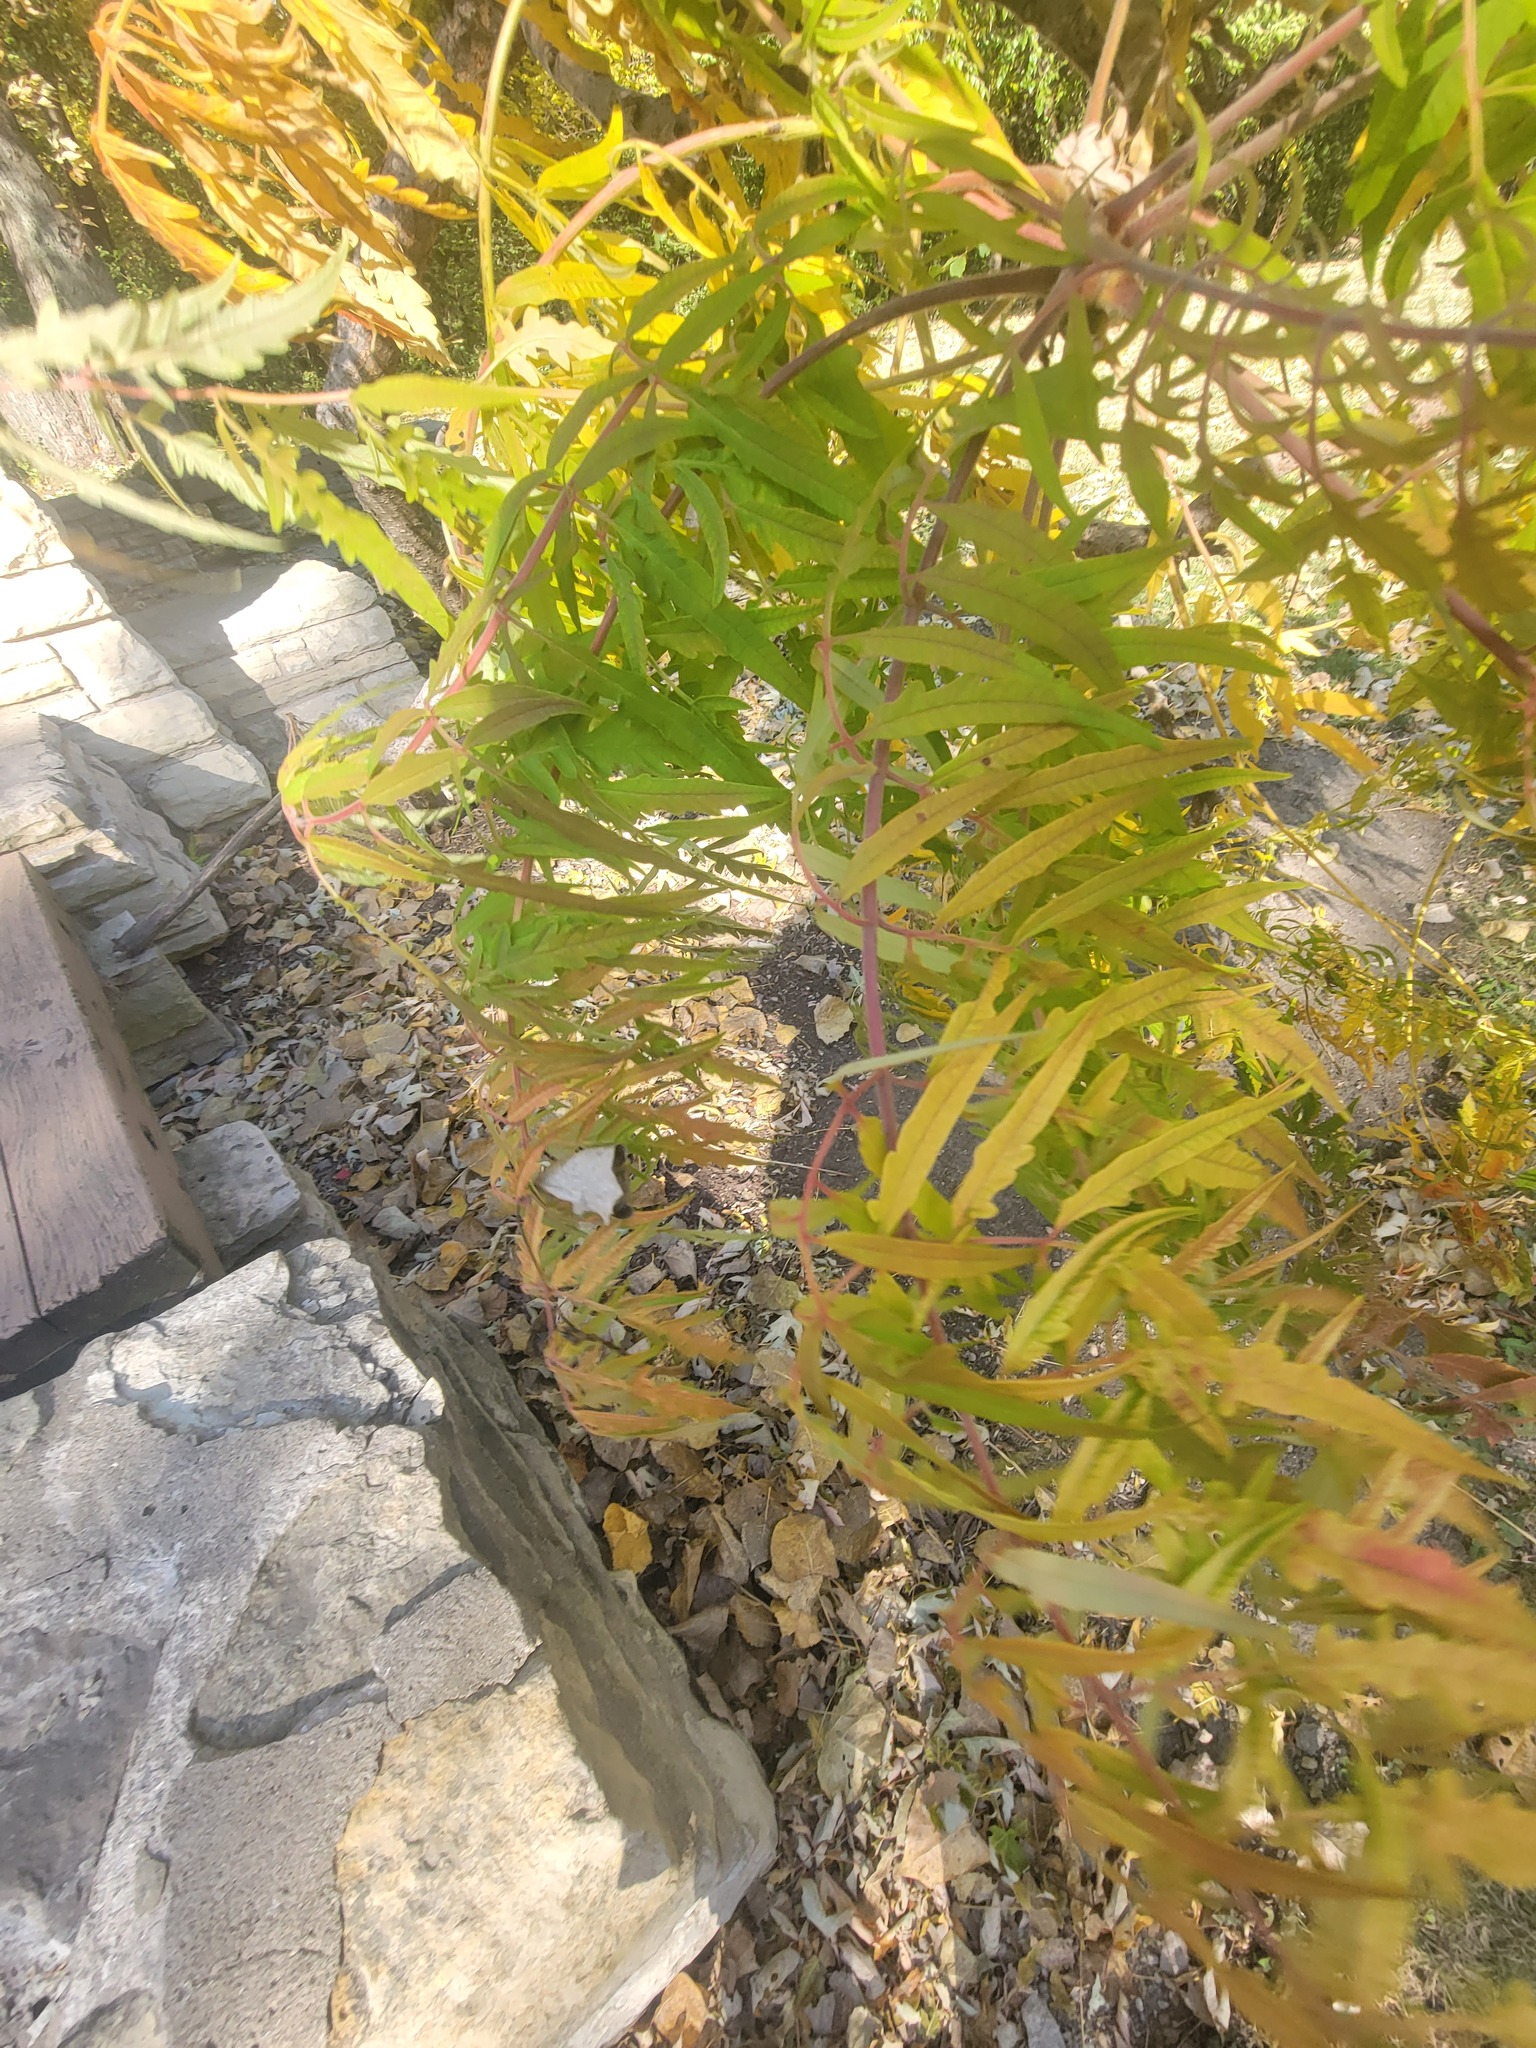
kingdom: Plantae
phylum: Tracheophyta
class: Magnoliopsida
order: Sapindales
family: Anacardiaceae
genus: Rhus
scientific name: Rhus typhina
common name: Staghorn sumac
